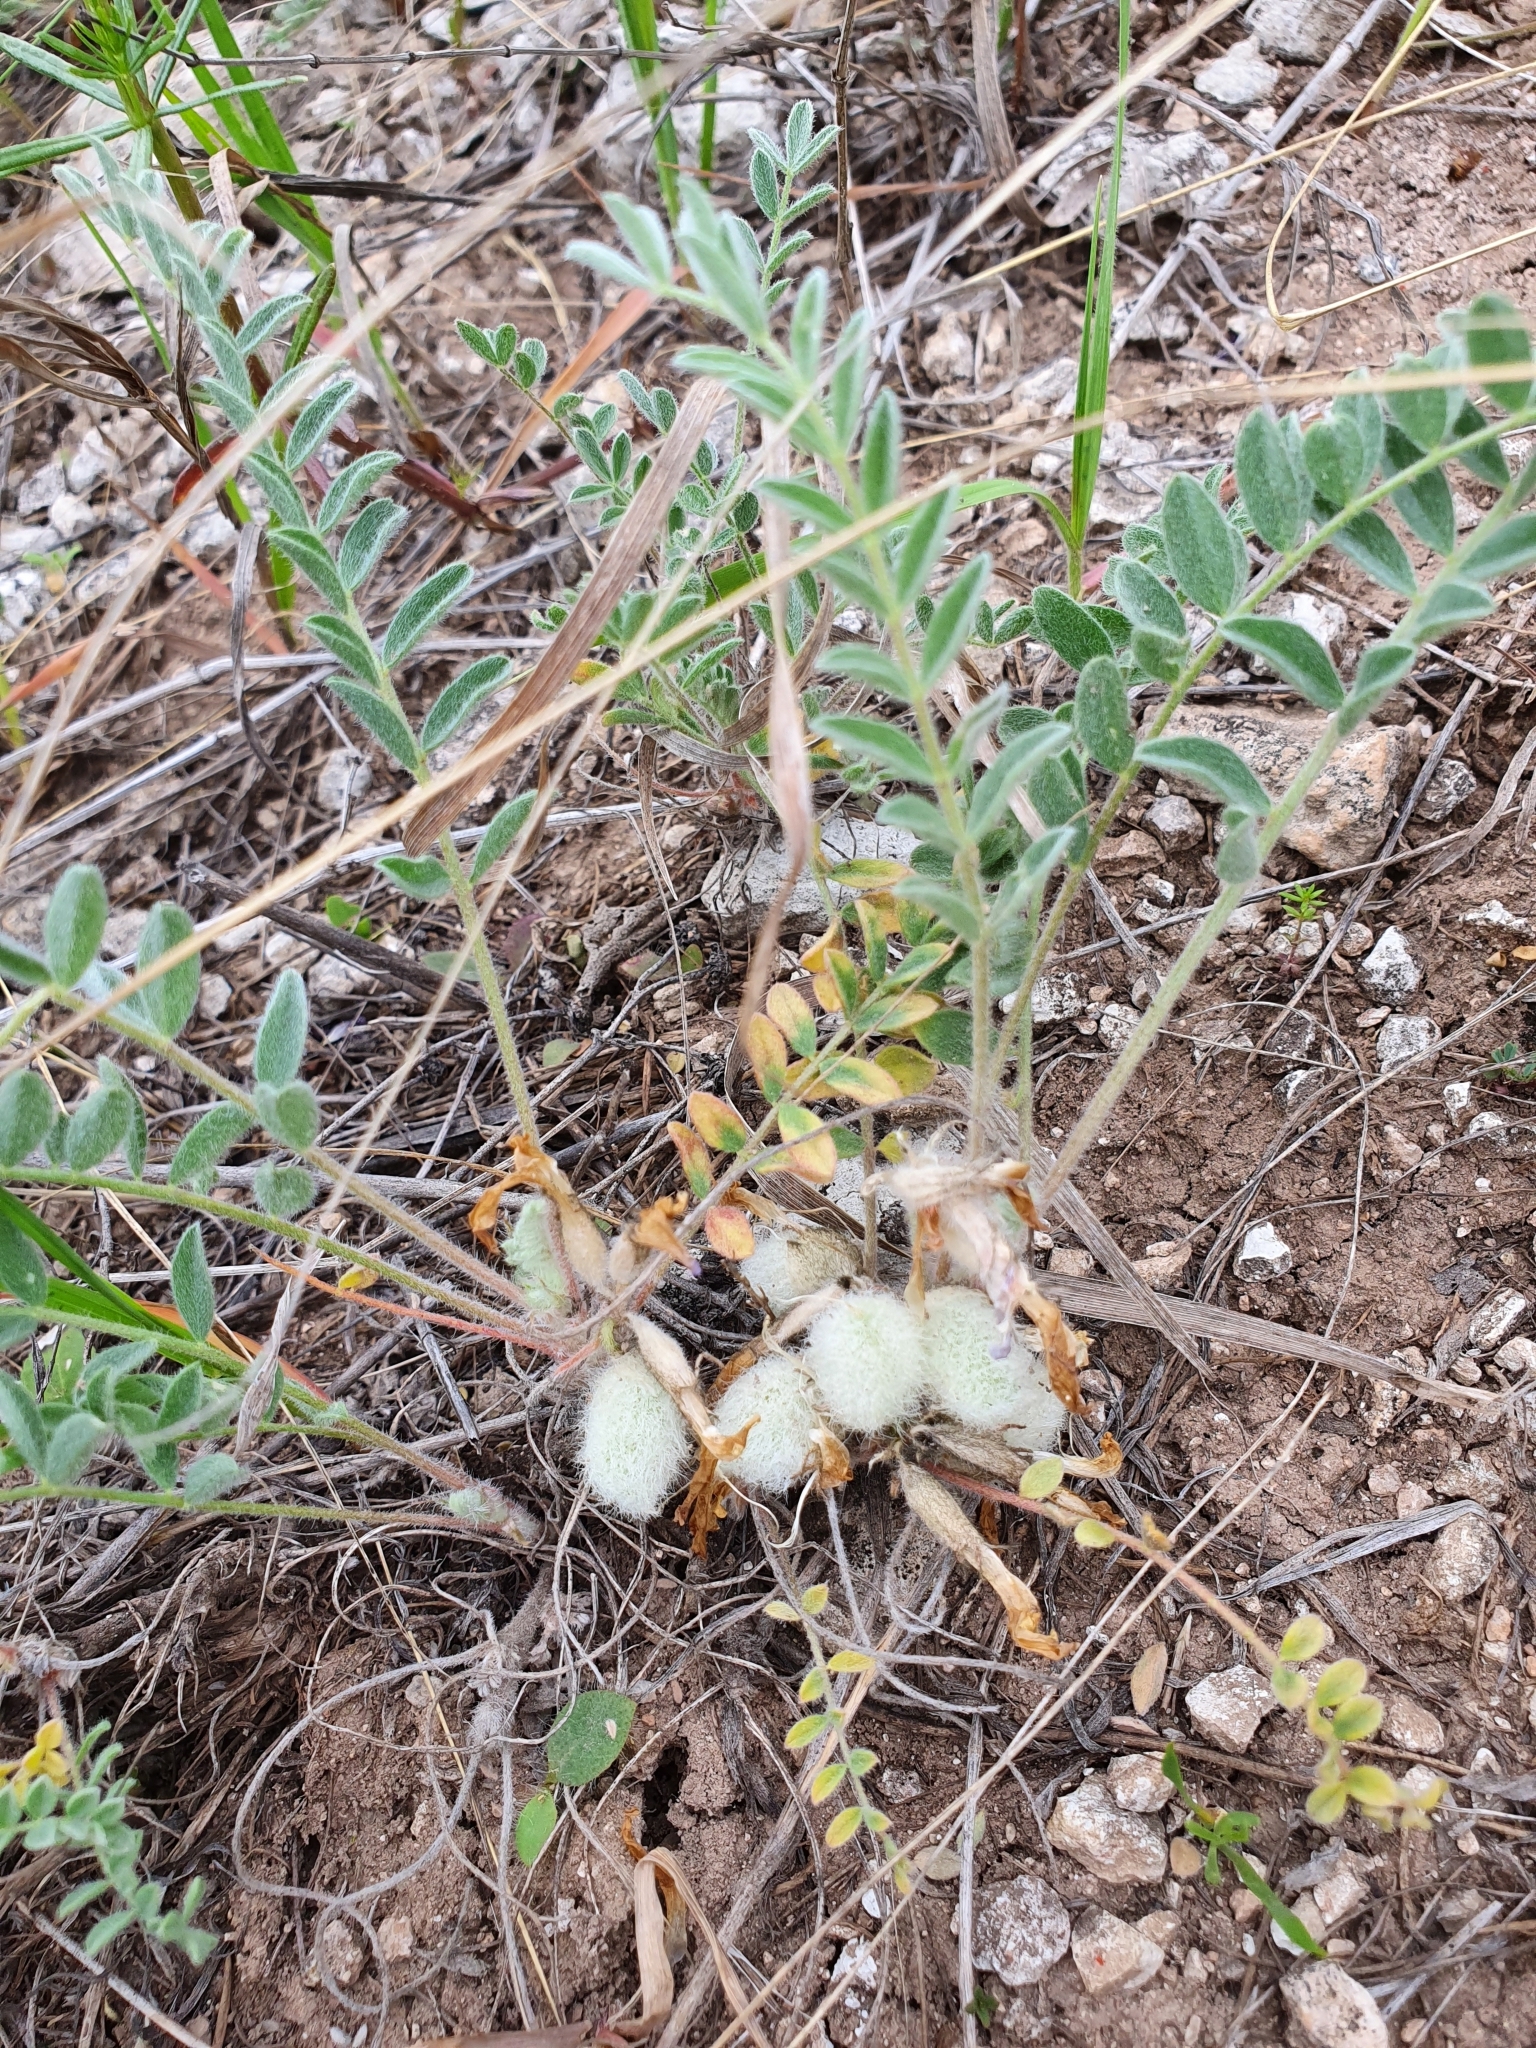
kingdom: Plantae
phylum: Tracheophyta
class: Magnoliopsida
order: Fabales
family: Fabaceae
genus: Astragalus
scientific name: Astragalus testiculatus
